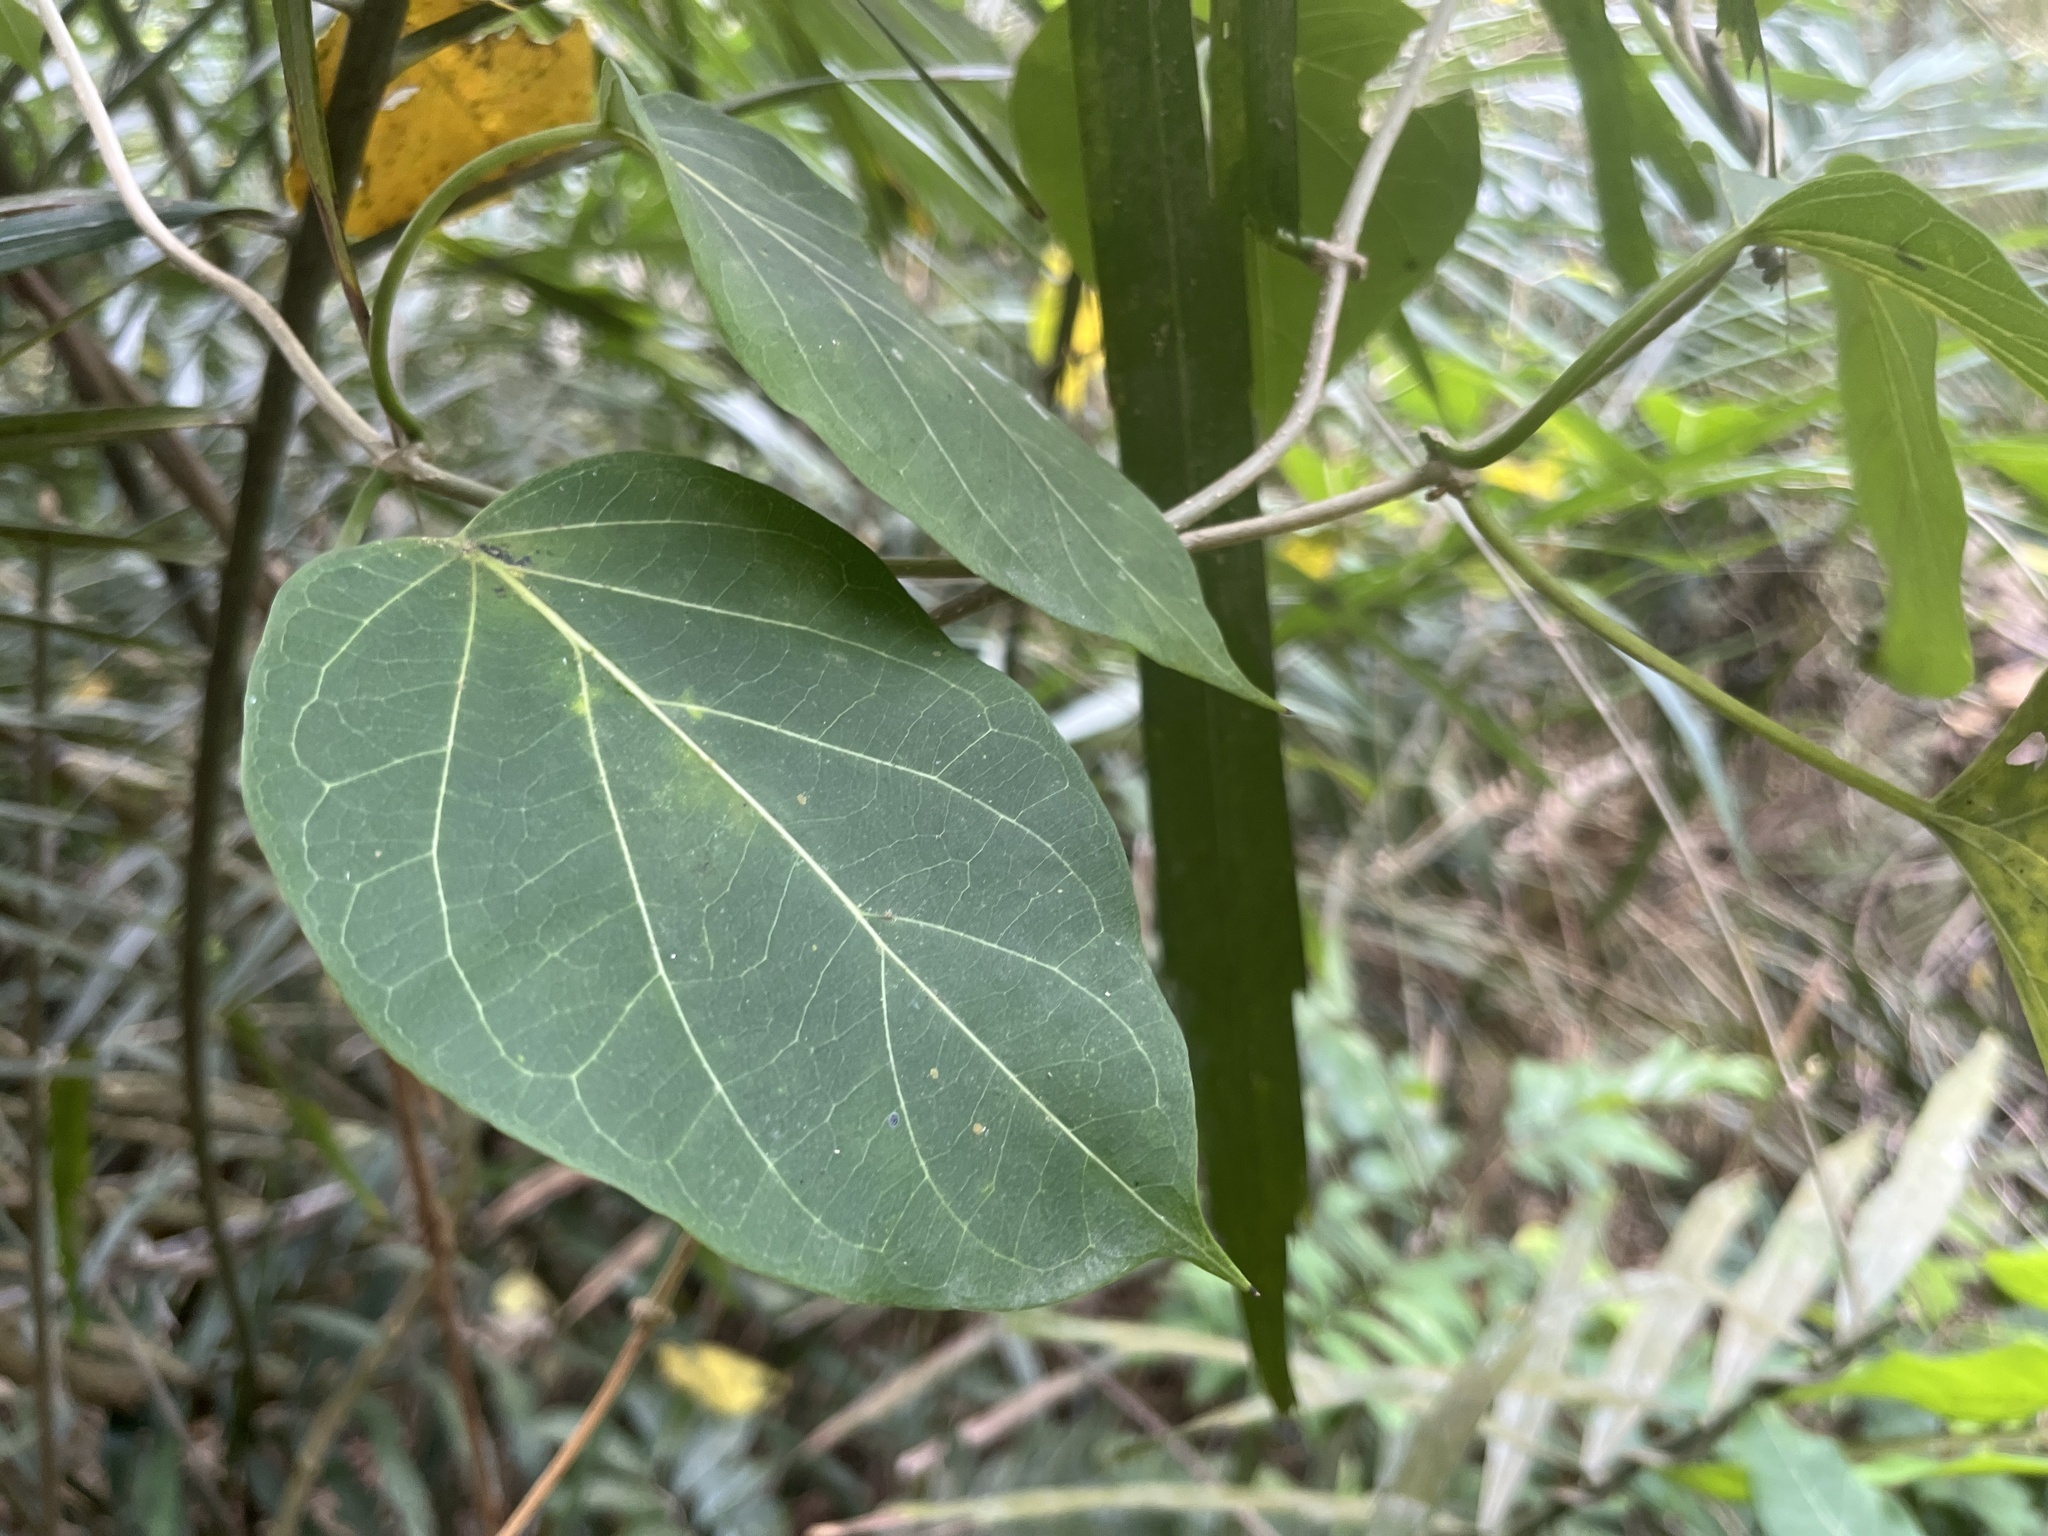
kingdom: Plantae
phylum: Tracheophyta
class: Magnoliopsida
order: Gentianales
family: Apocynaceae
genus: Stephanotis
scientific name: Stephanotis volubilis
